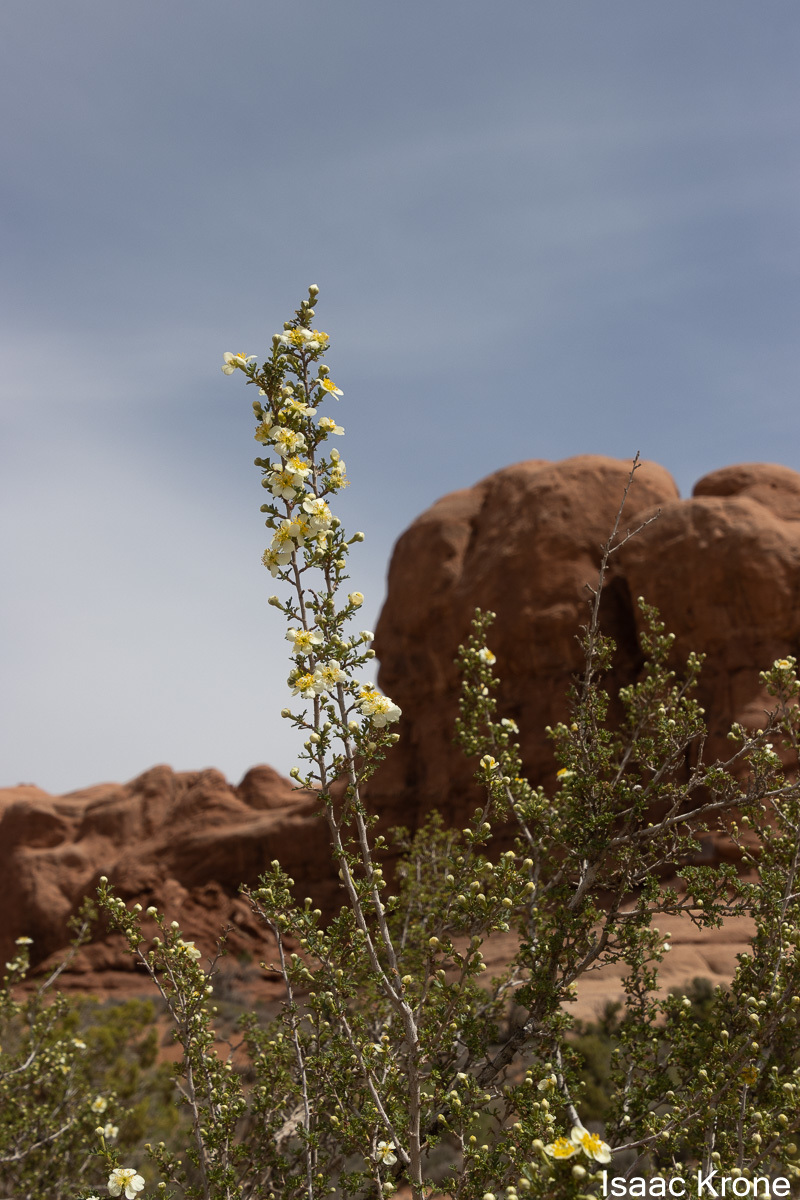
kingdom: Plantae
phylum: Tracheophyta
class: Magnoliopsida
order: Rosales
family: Rosaceae
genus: Purshia
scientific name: Purshia stansburiana
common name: Stansbury's cliffrose
